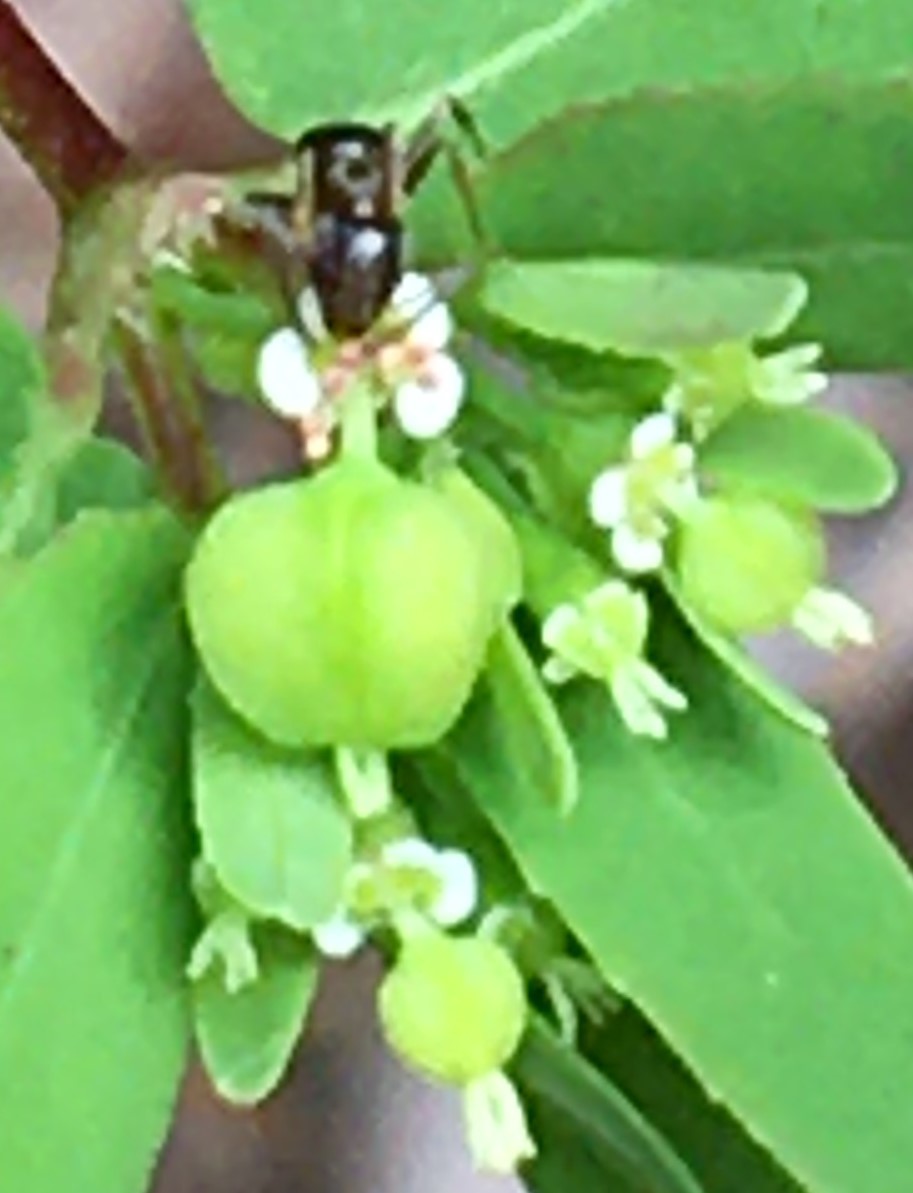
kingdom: Plantae
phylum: Tracheophyta
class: Magnoliopsida
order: Malpighiales
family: Euphorbiaceae
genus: Euphorbia
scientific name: Euphorbia hyssopifolia
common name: Hyssopleaf sandmat
